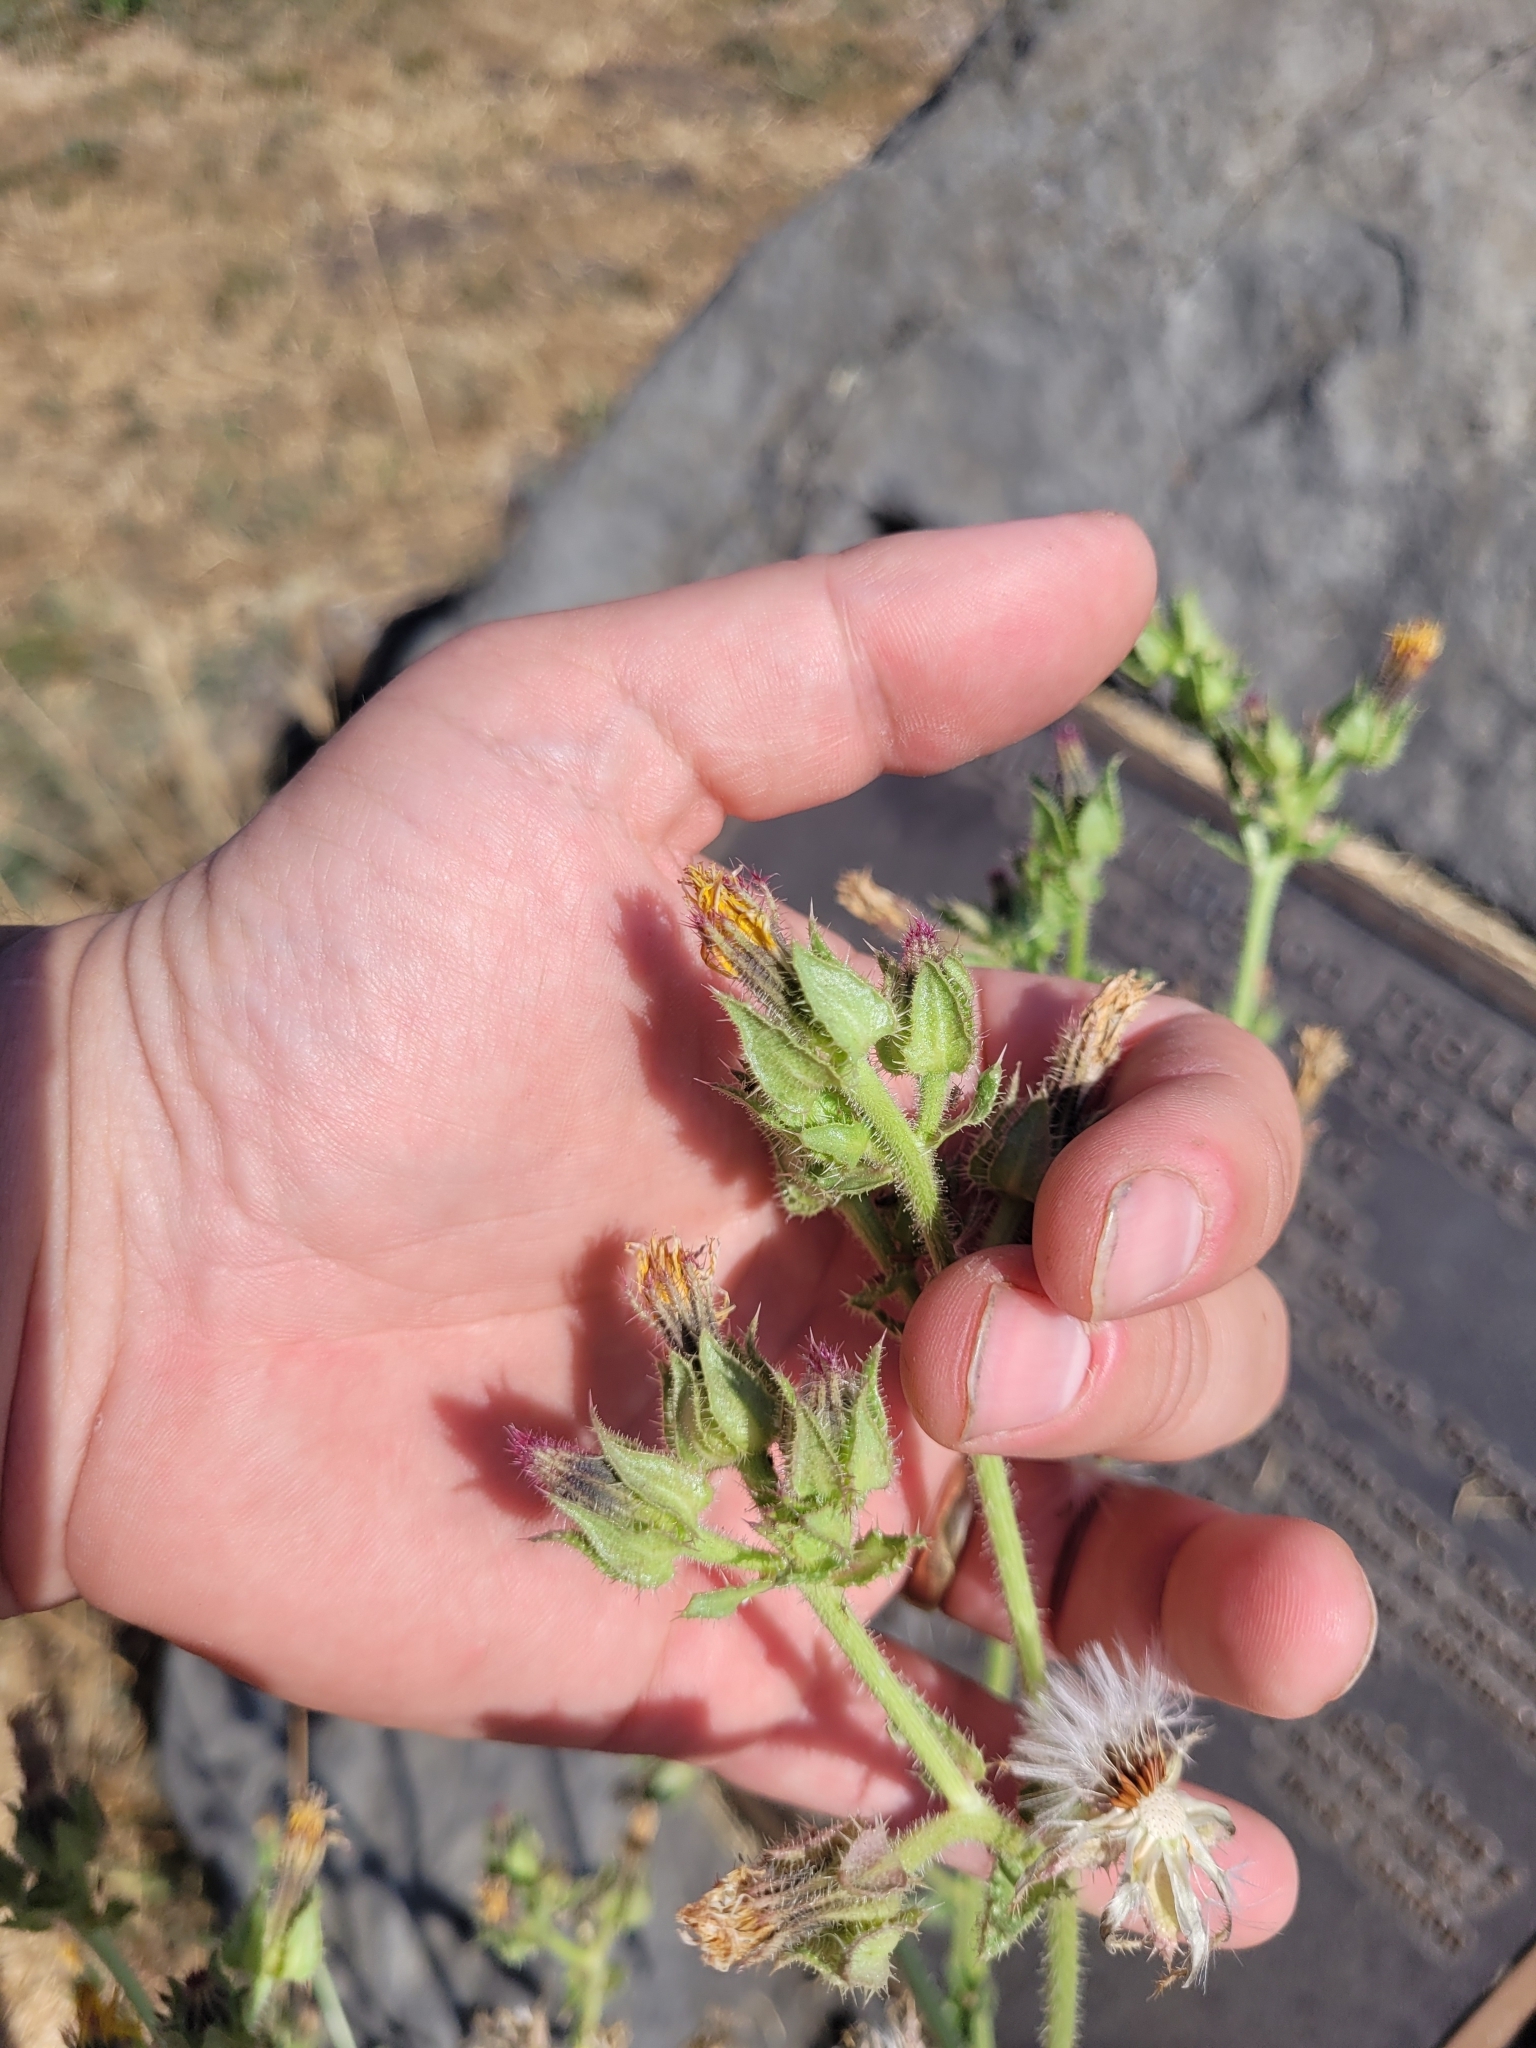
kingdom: Plantae
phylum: Tracheophyta
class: Magnoliopsida
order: Asterales
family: Asteraceae
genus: Helminthotheca
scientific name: Helminthotheca echioides
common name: Ox-tongue
